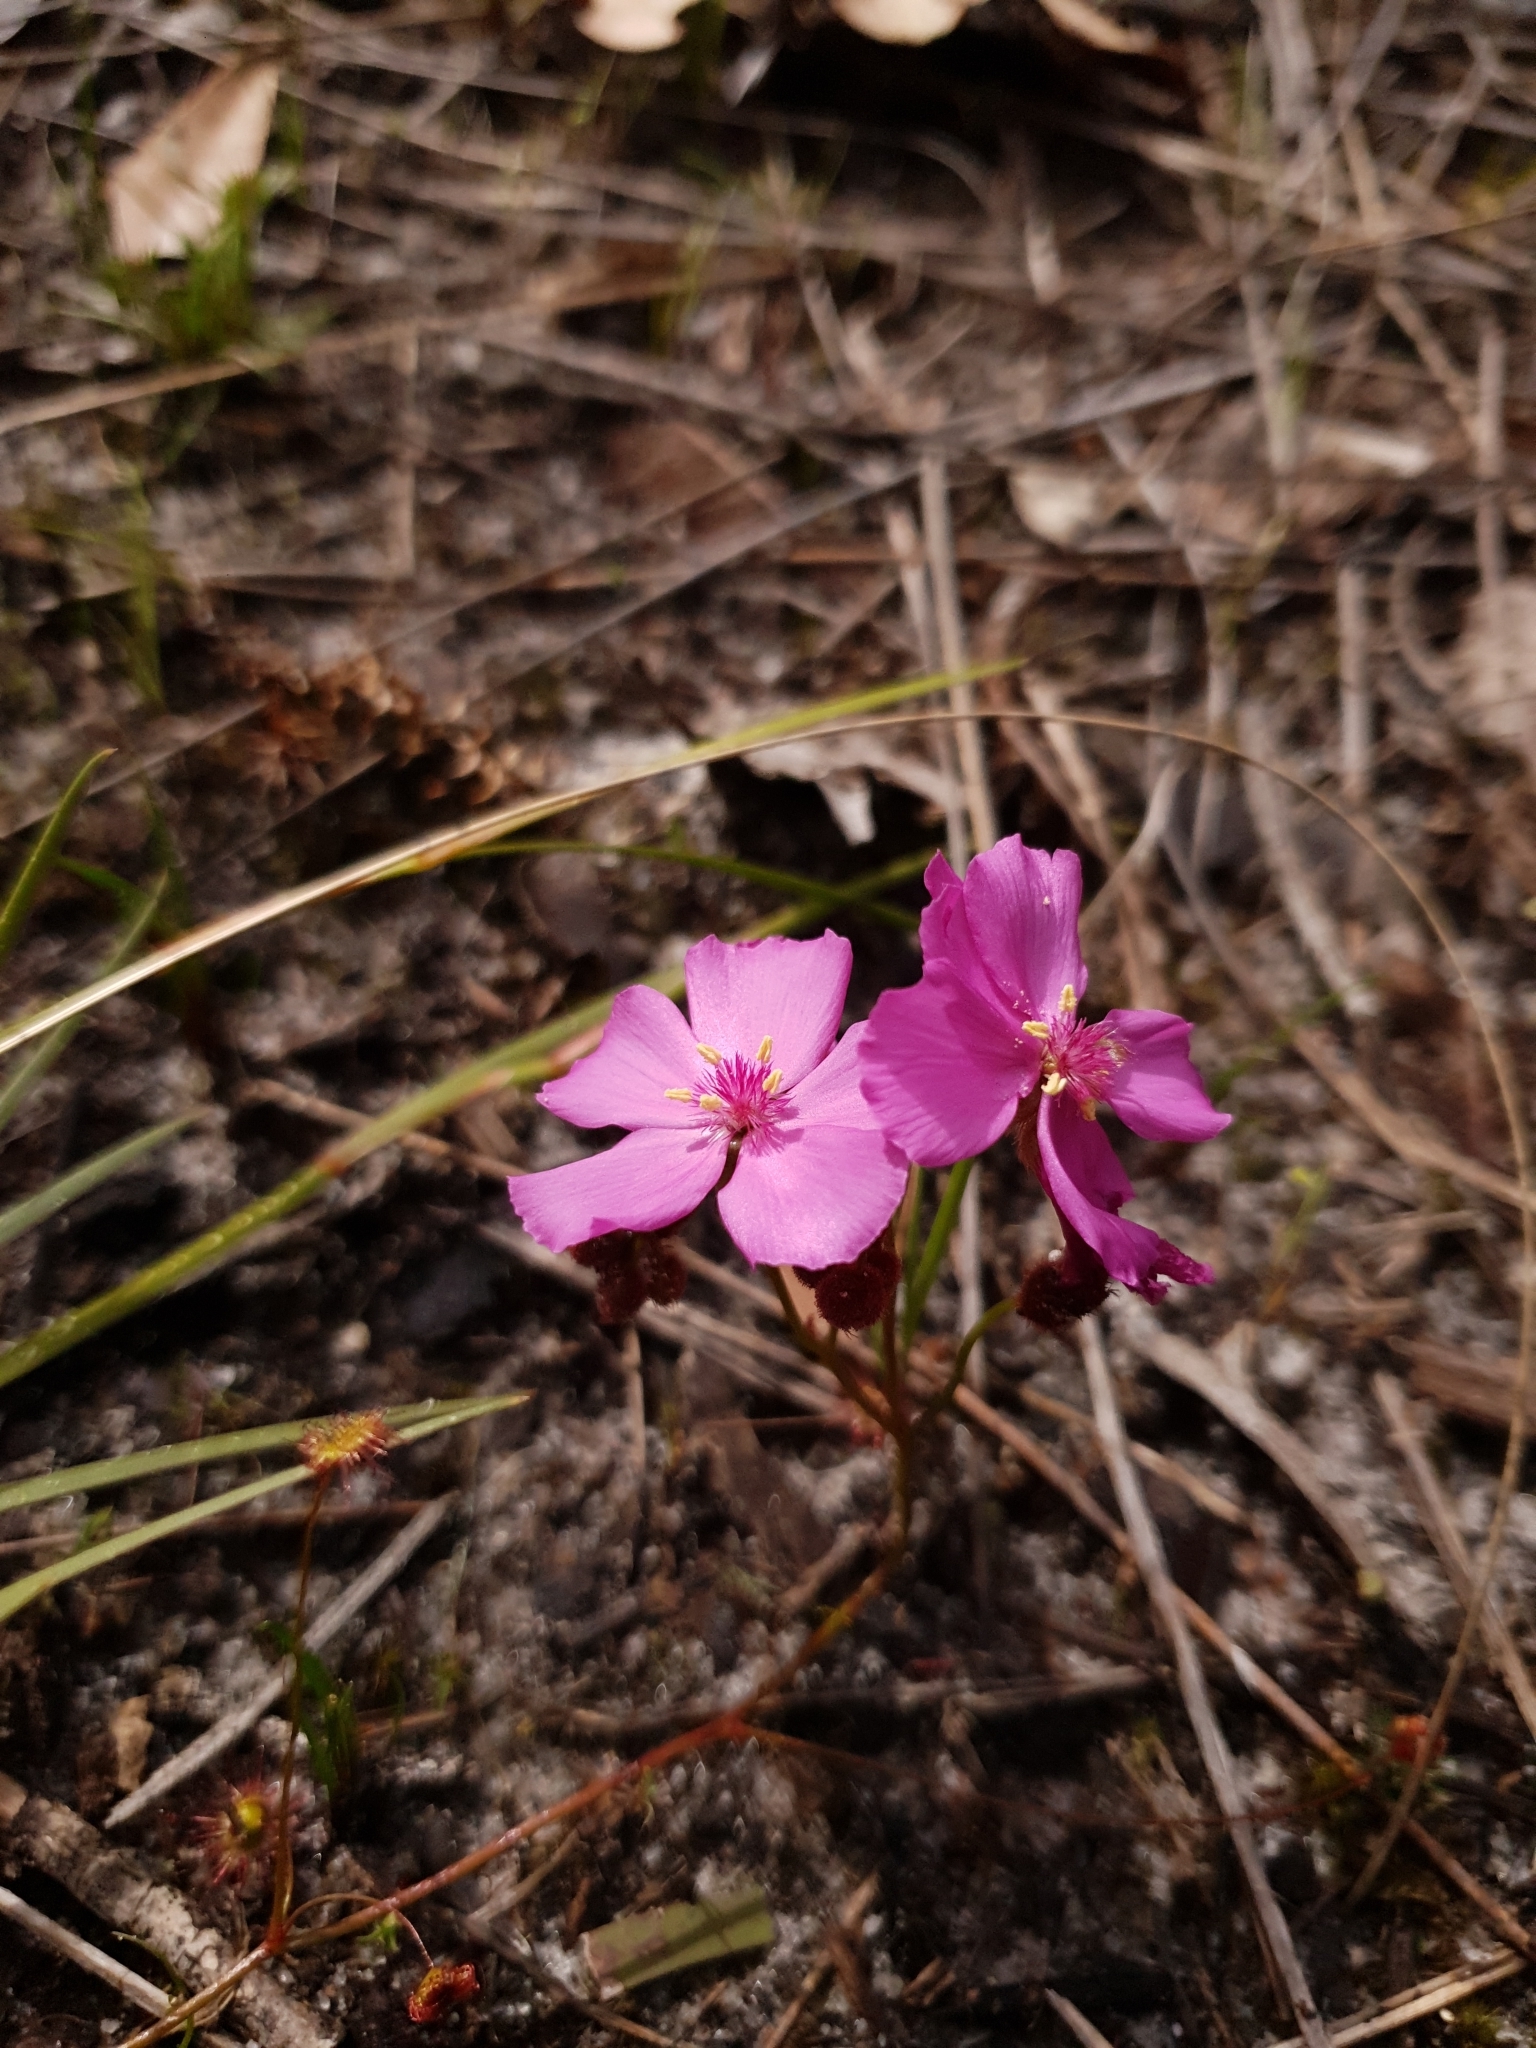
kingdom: Plantae
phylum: Tracheophyta
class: Magnoliopsida
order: Caryophyllales
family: Droseraceae
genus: Drosera
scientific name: Drosera
